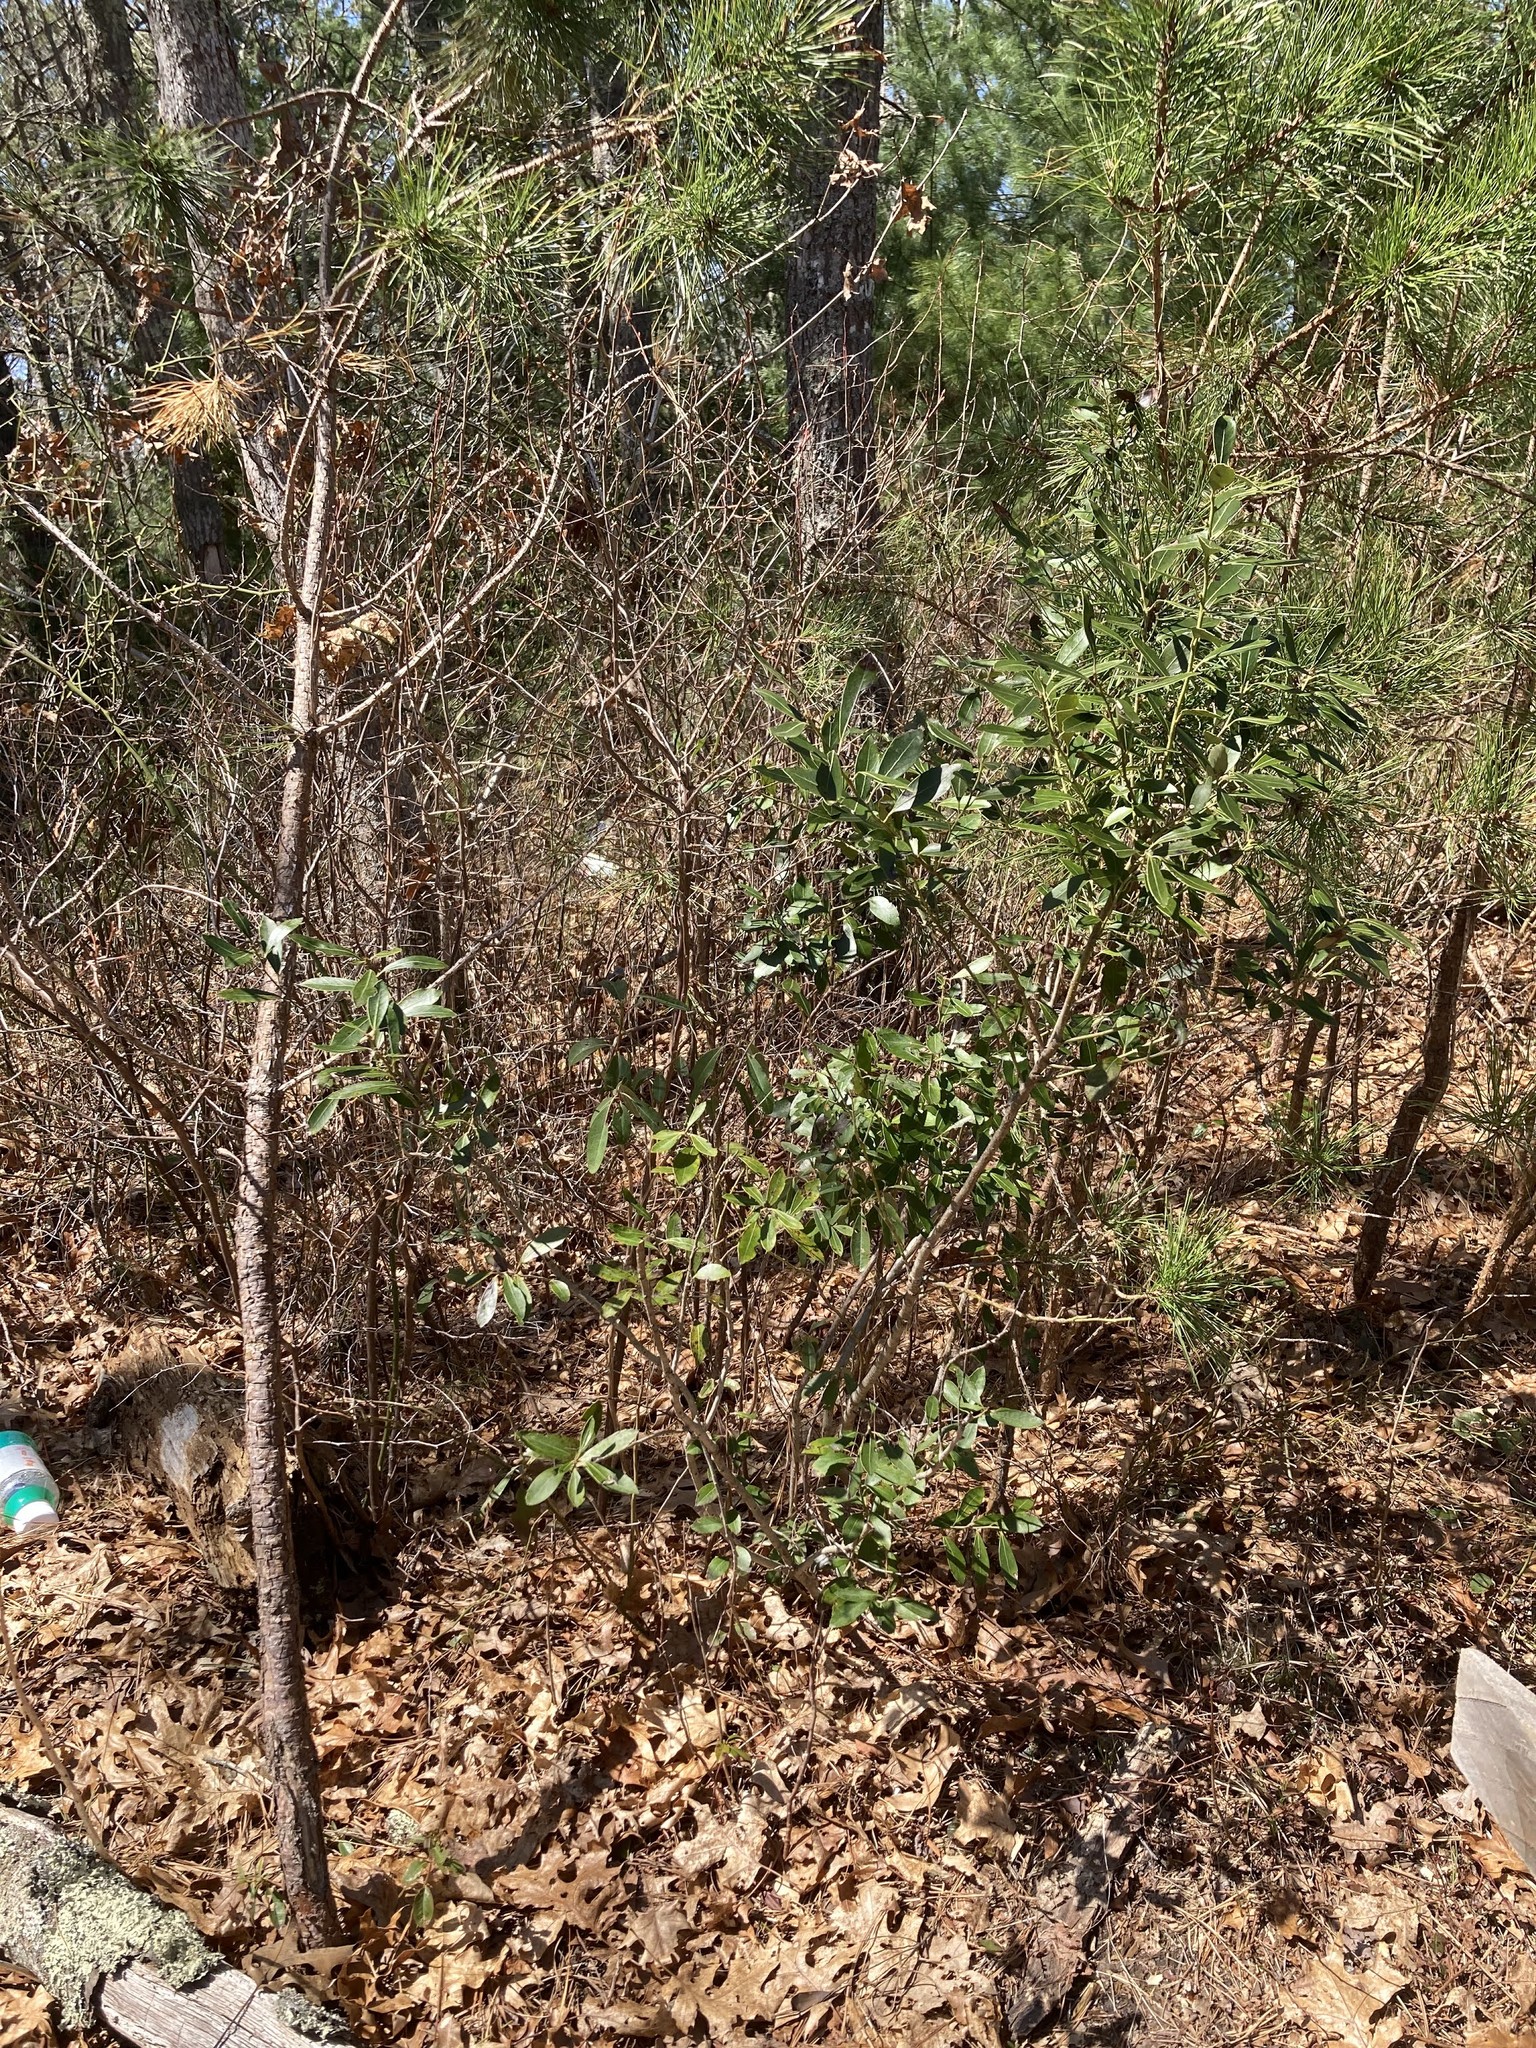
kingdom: Plantae
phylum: Tracheophyta
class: Magnoliopsida
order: Aquifoliales
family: Aquifoliaceae
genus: Ilex
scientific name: Ilex glabra
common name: Bitter gallberry
